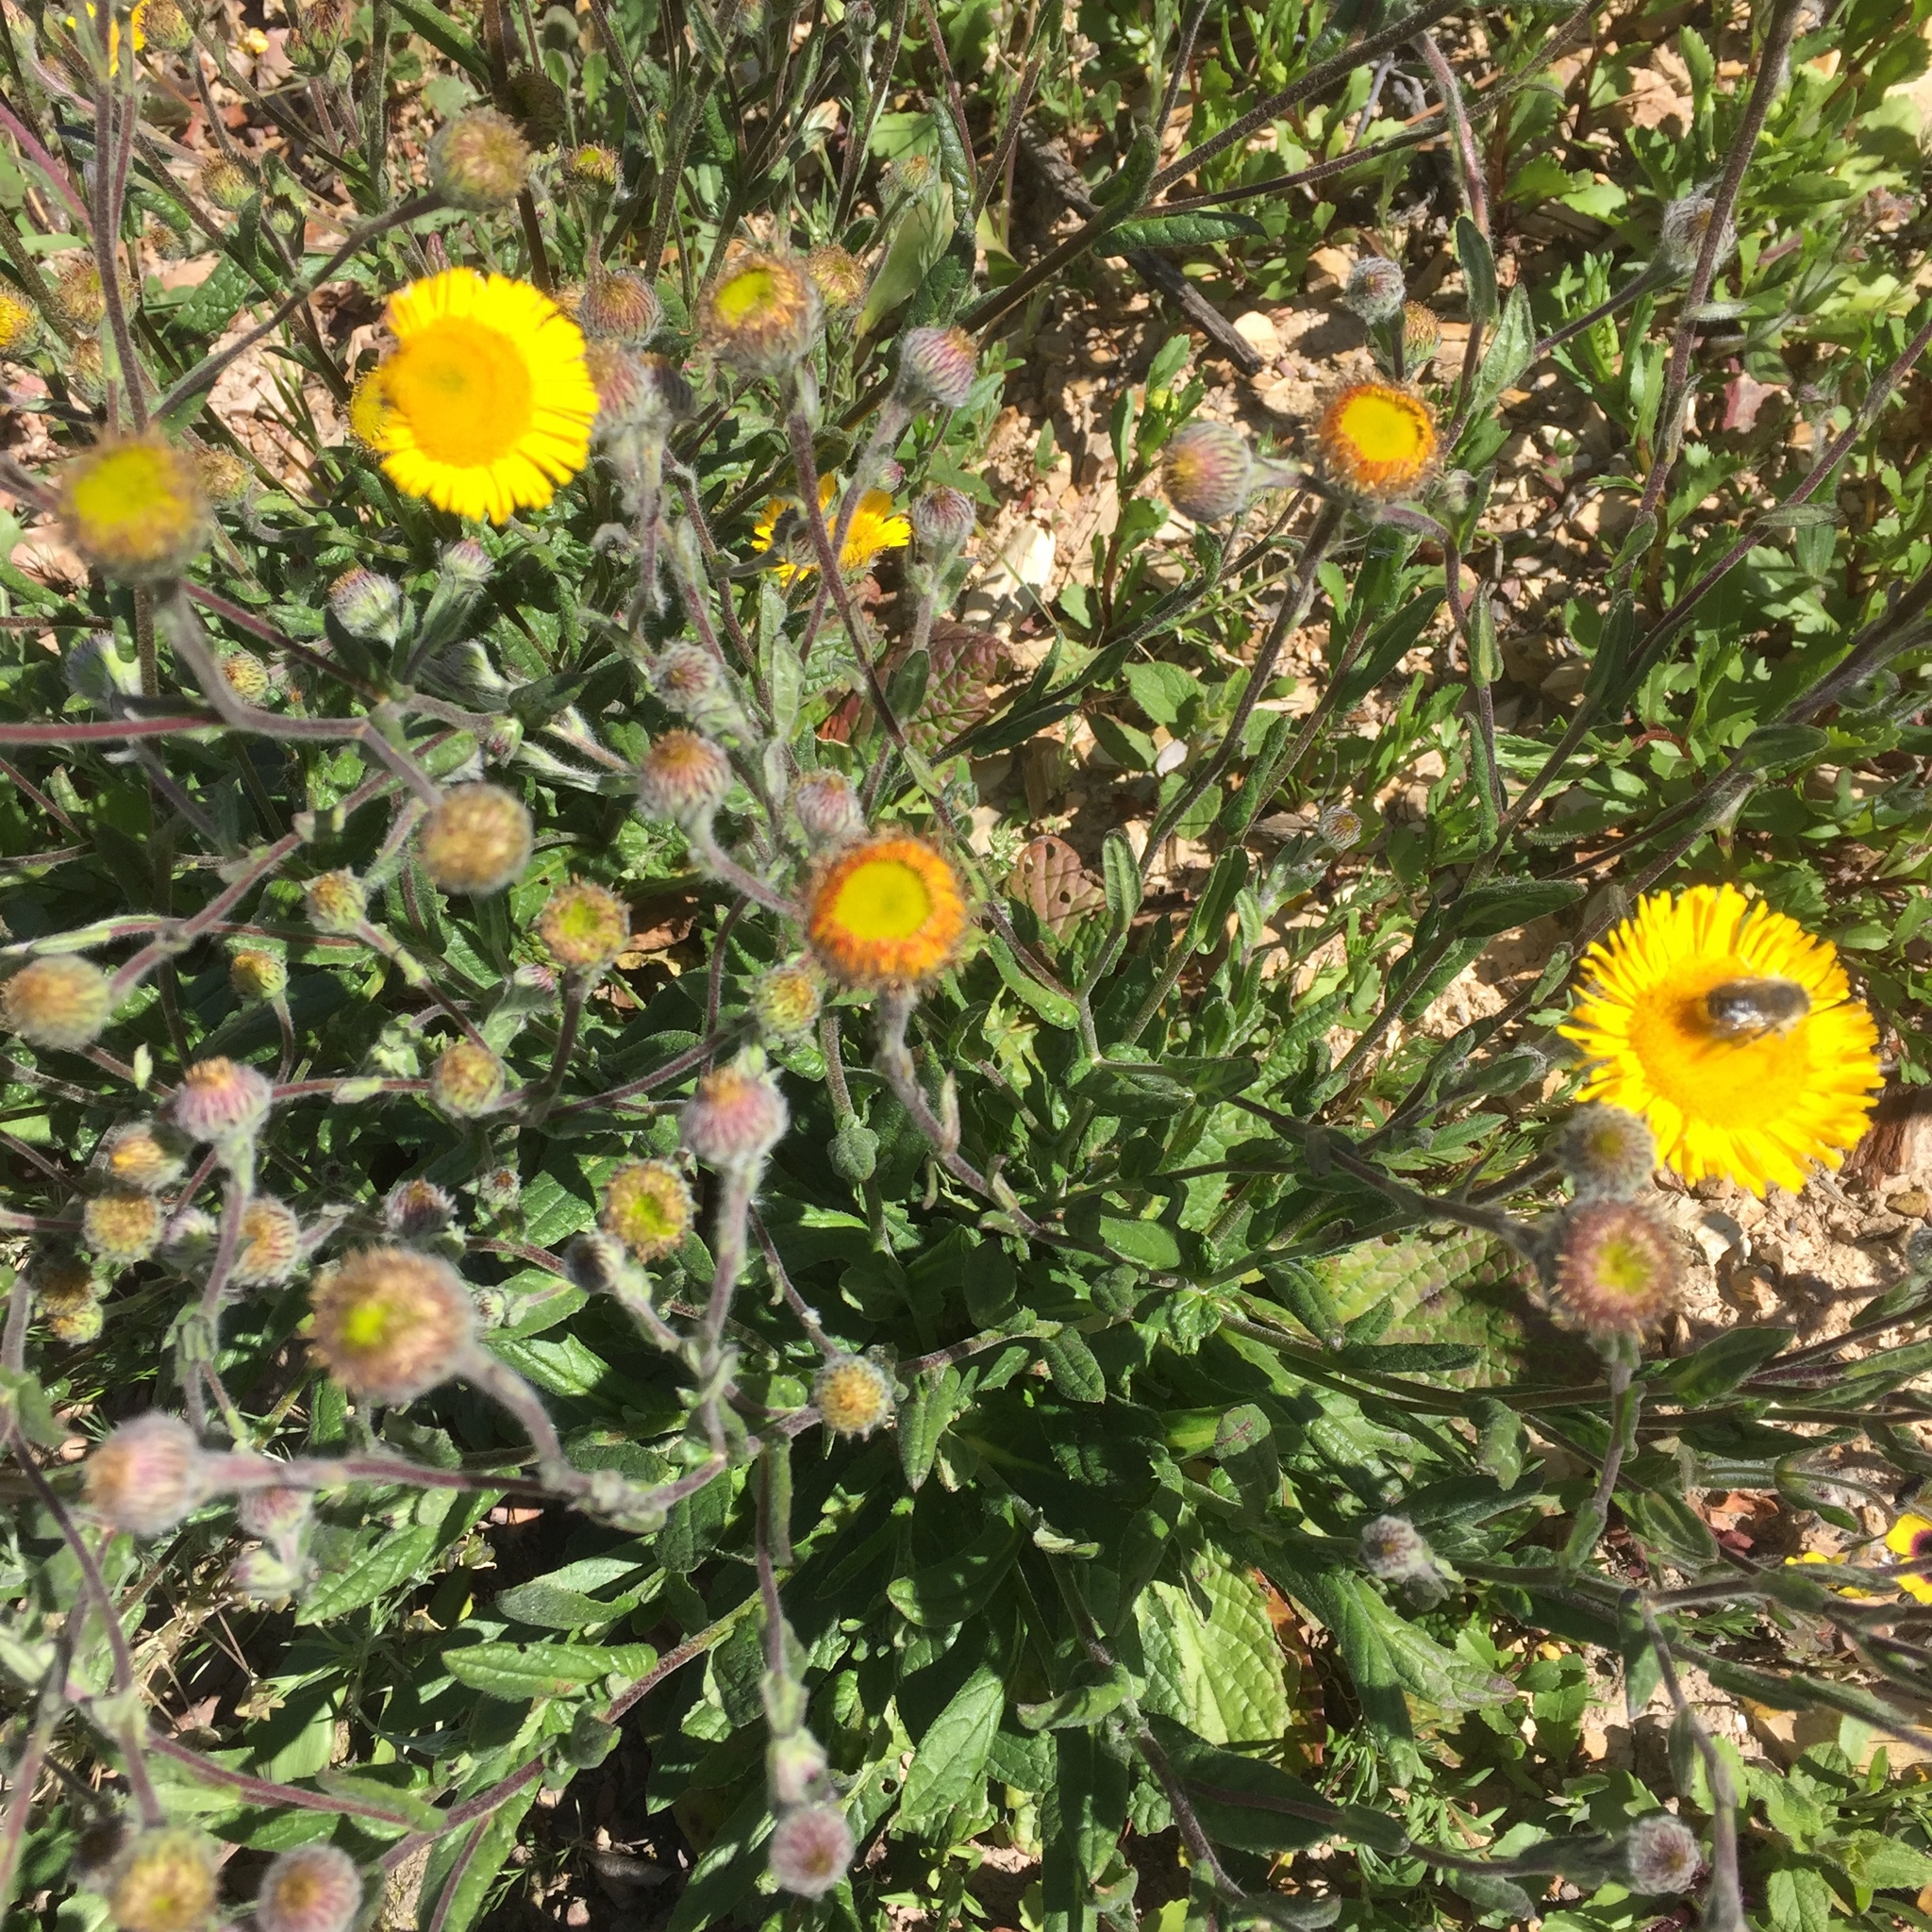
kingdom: Plantae
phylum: Tracheophyta
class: Magnoliopsida
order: Asterales
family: Asteraceae
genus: Pulicaria
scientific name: Pulicaria odora
